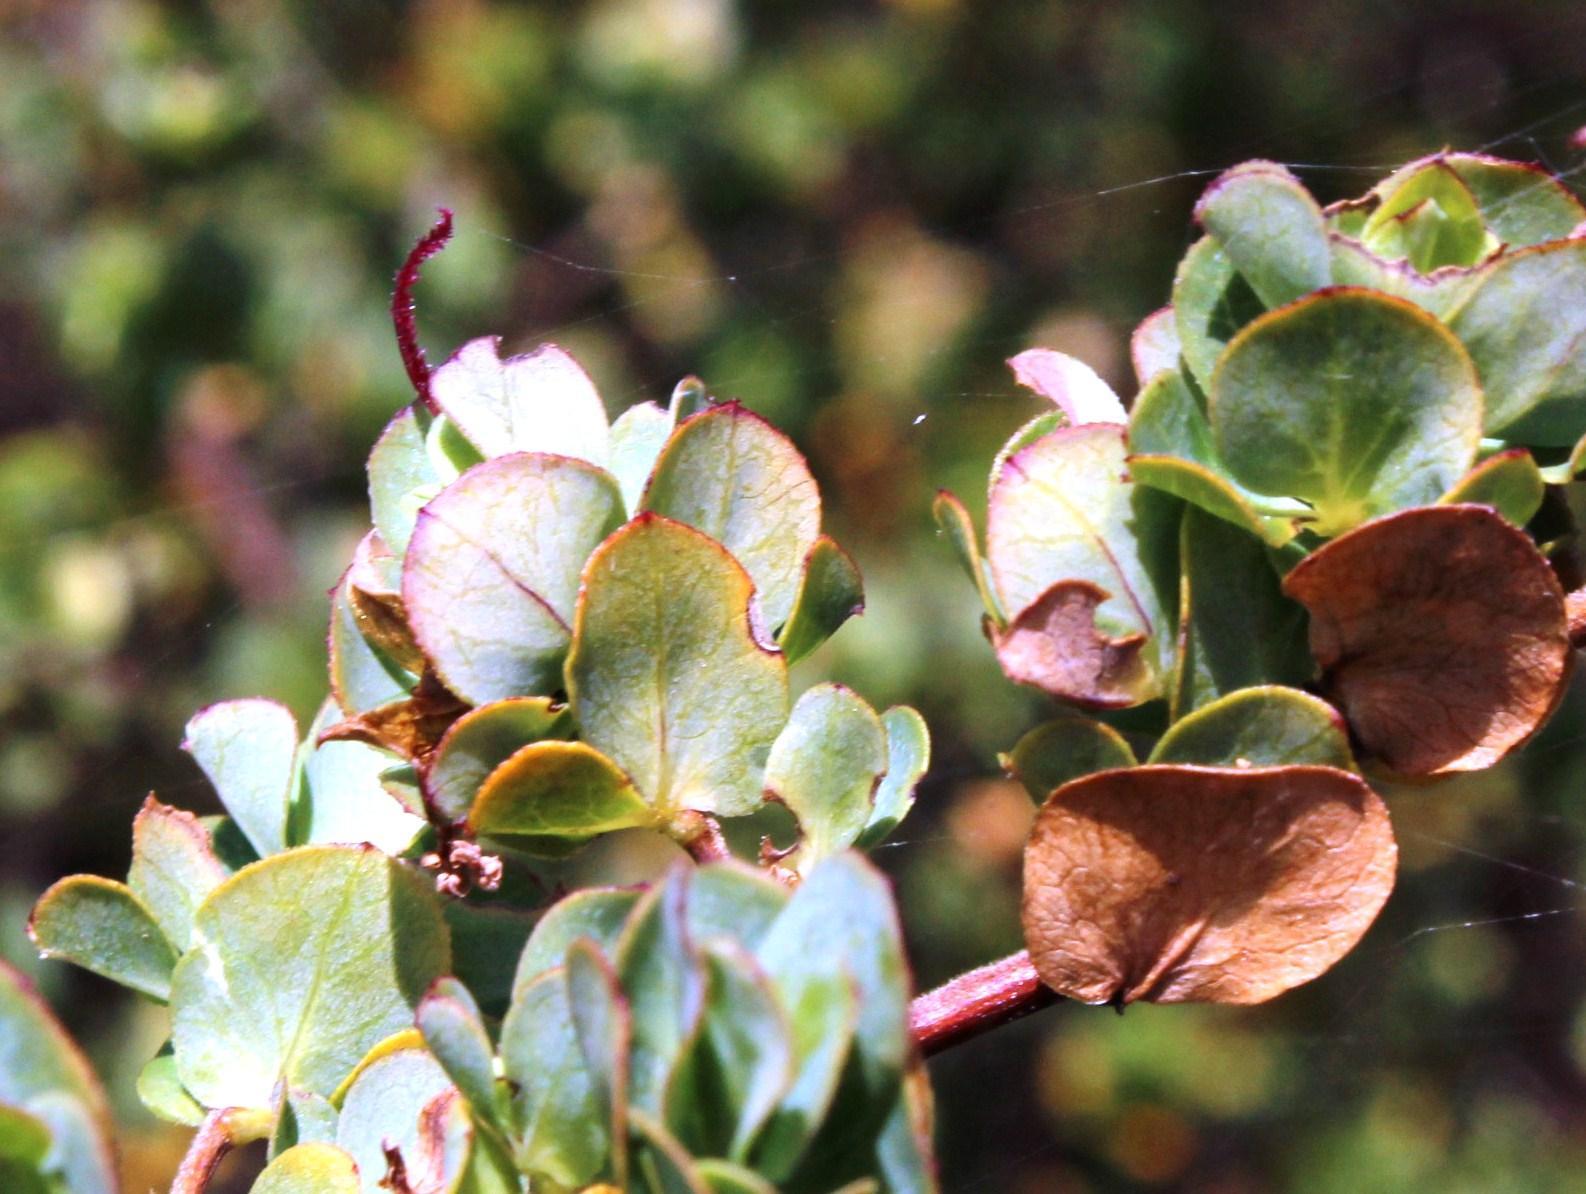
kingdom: Plantae
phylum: Tracheophyta
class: Magnoliopsida
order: Rosales
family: Rosaceae
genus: Cliffortia
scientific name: Cliffortia obcordata
